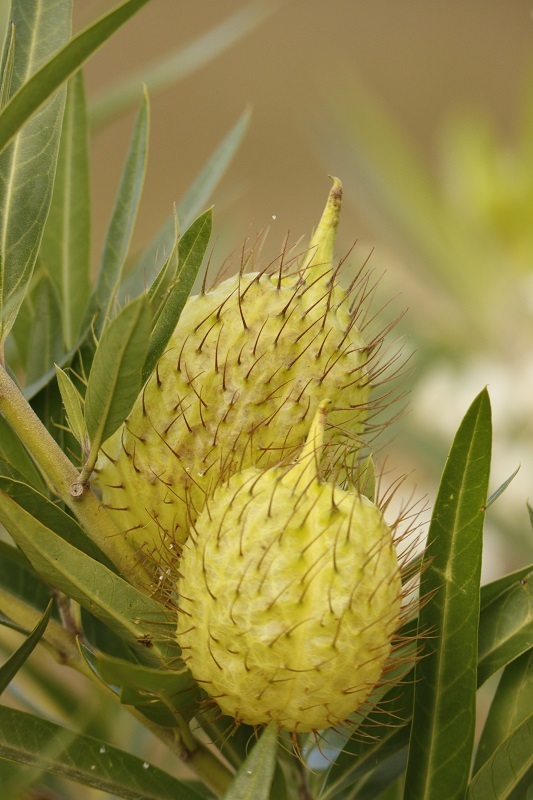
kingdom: Plantae
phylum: Tracheophyta
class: Magnoliopsida
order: Gentianales
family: Apocynaceae
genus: Gomphocarpus
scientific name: Gomphocarpus physocarpus
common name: Balloon cotton bush
